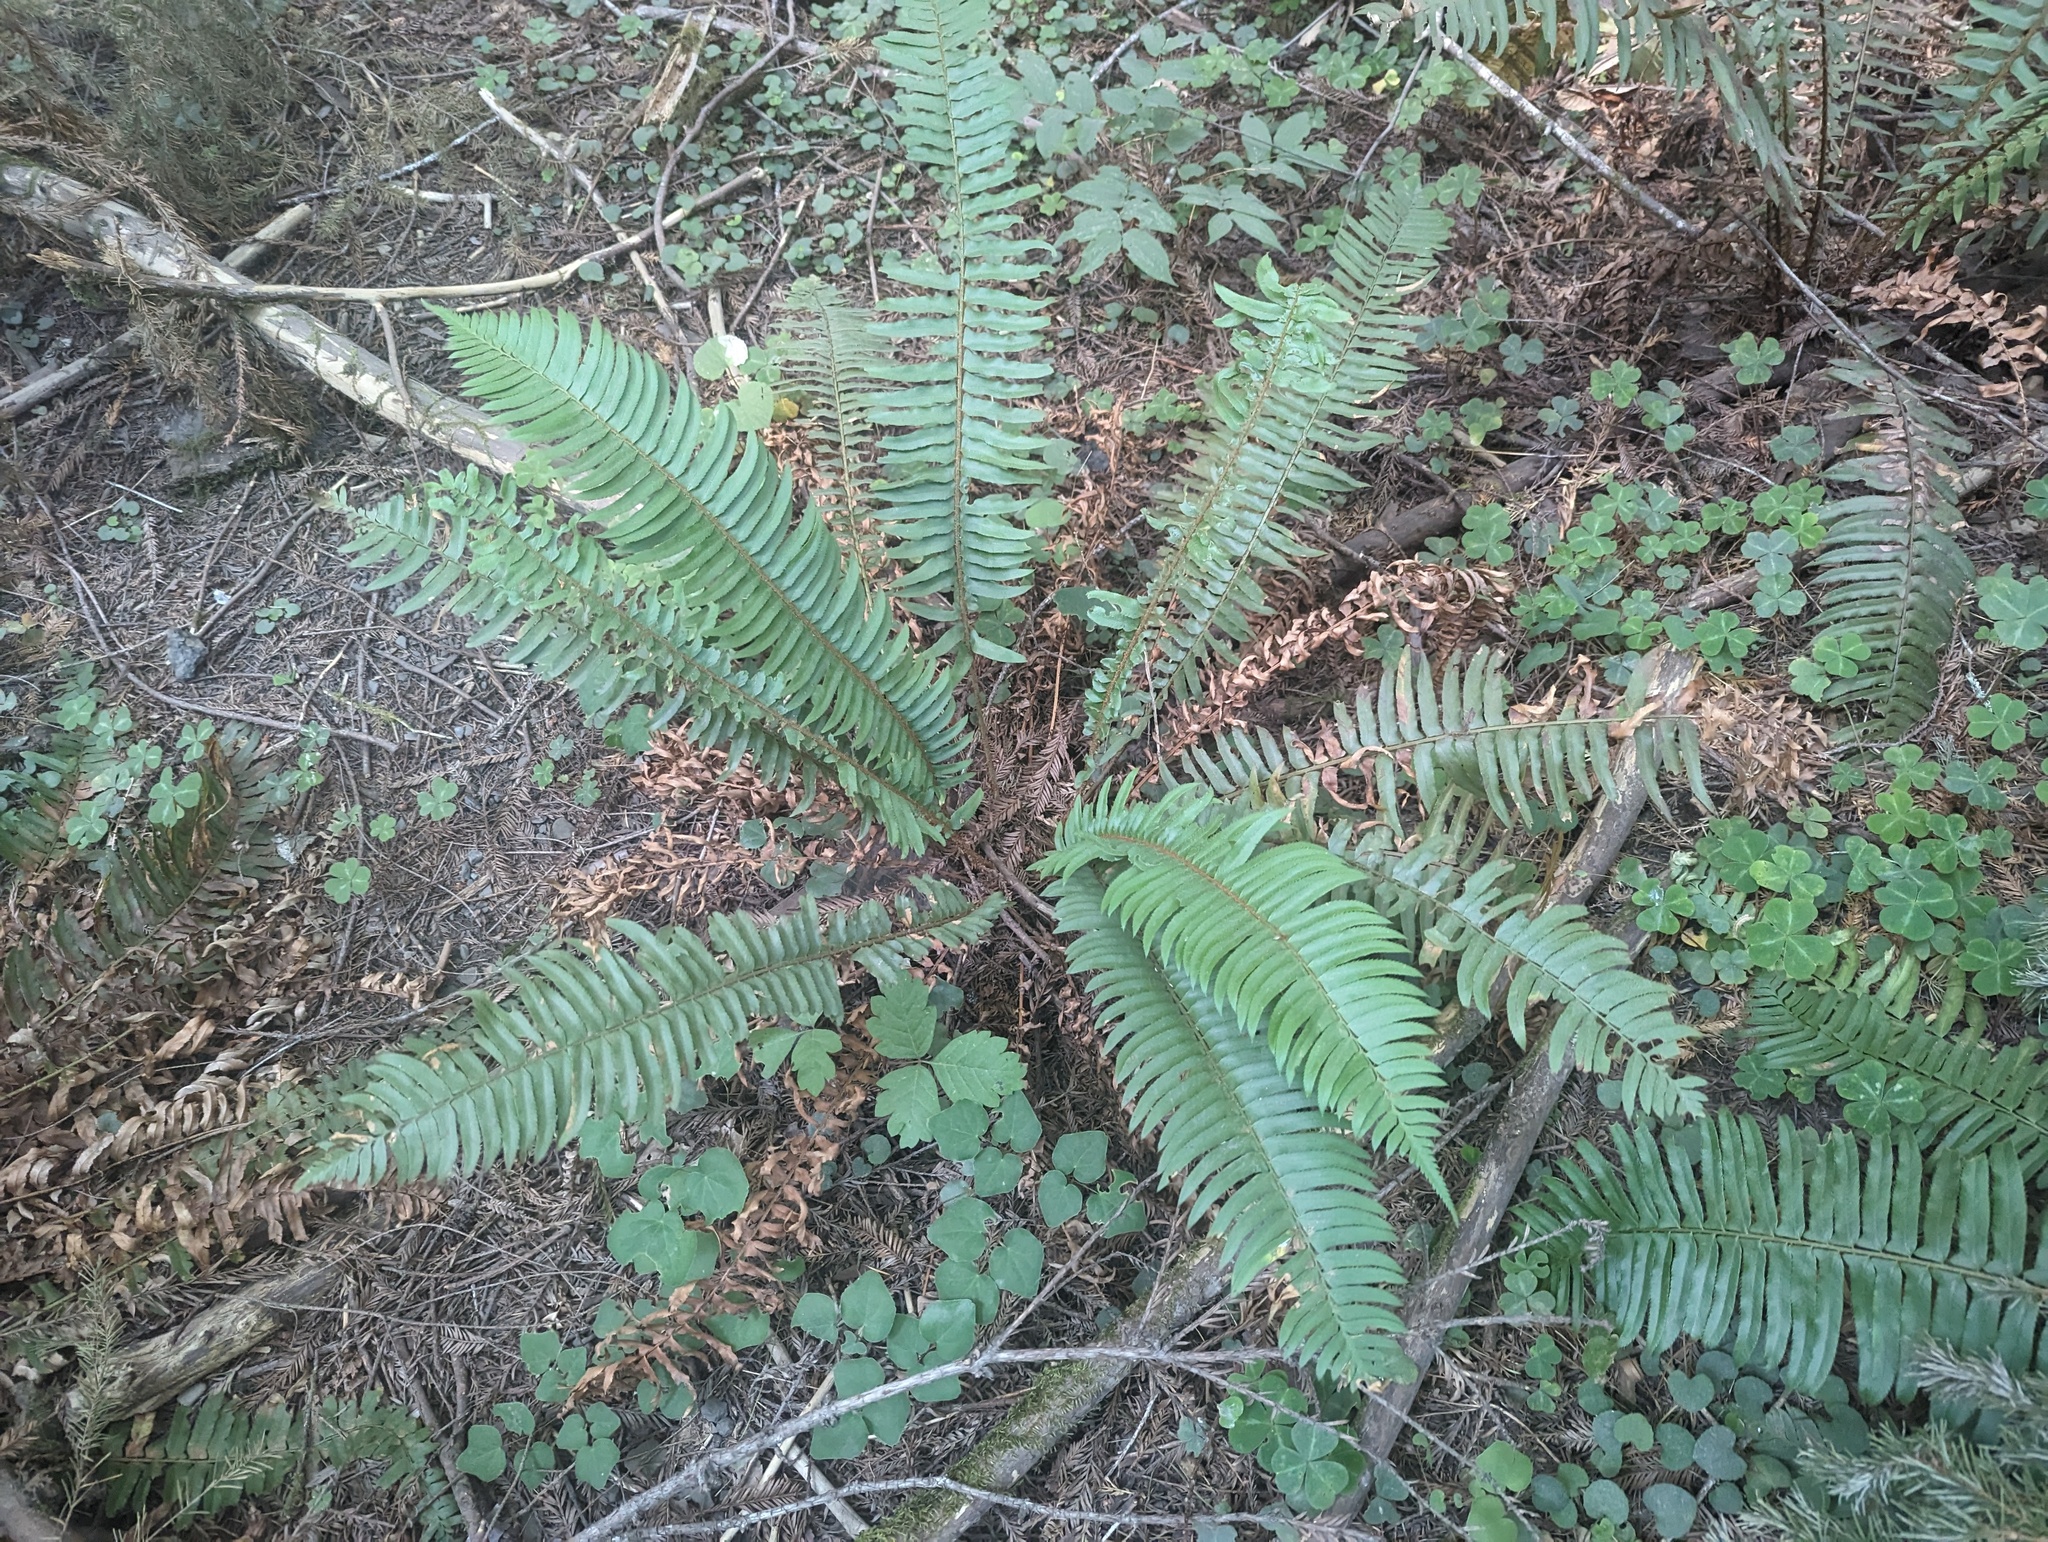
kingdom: Plantae
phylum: Tracheophyta
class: Polypodiopsida
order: Polypodiales
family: Dryopteridaceae
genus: Polystichum
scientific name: Polystichum munitum
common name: Western sword-fern
